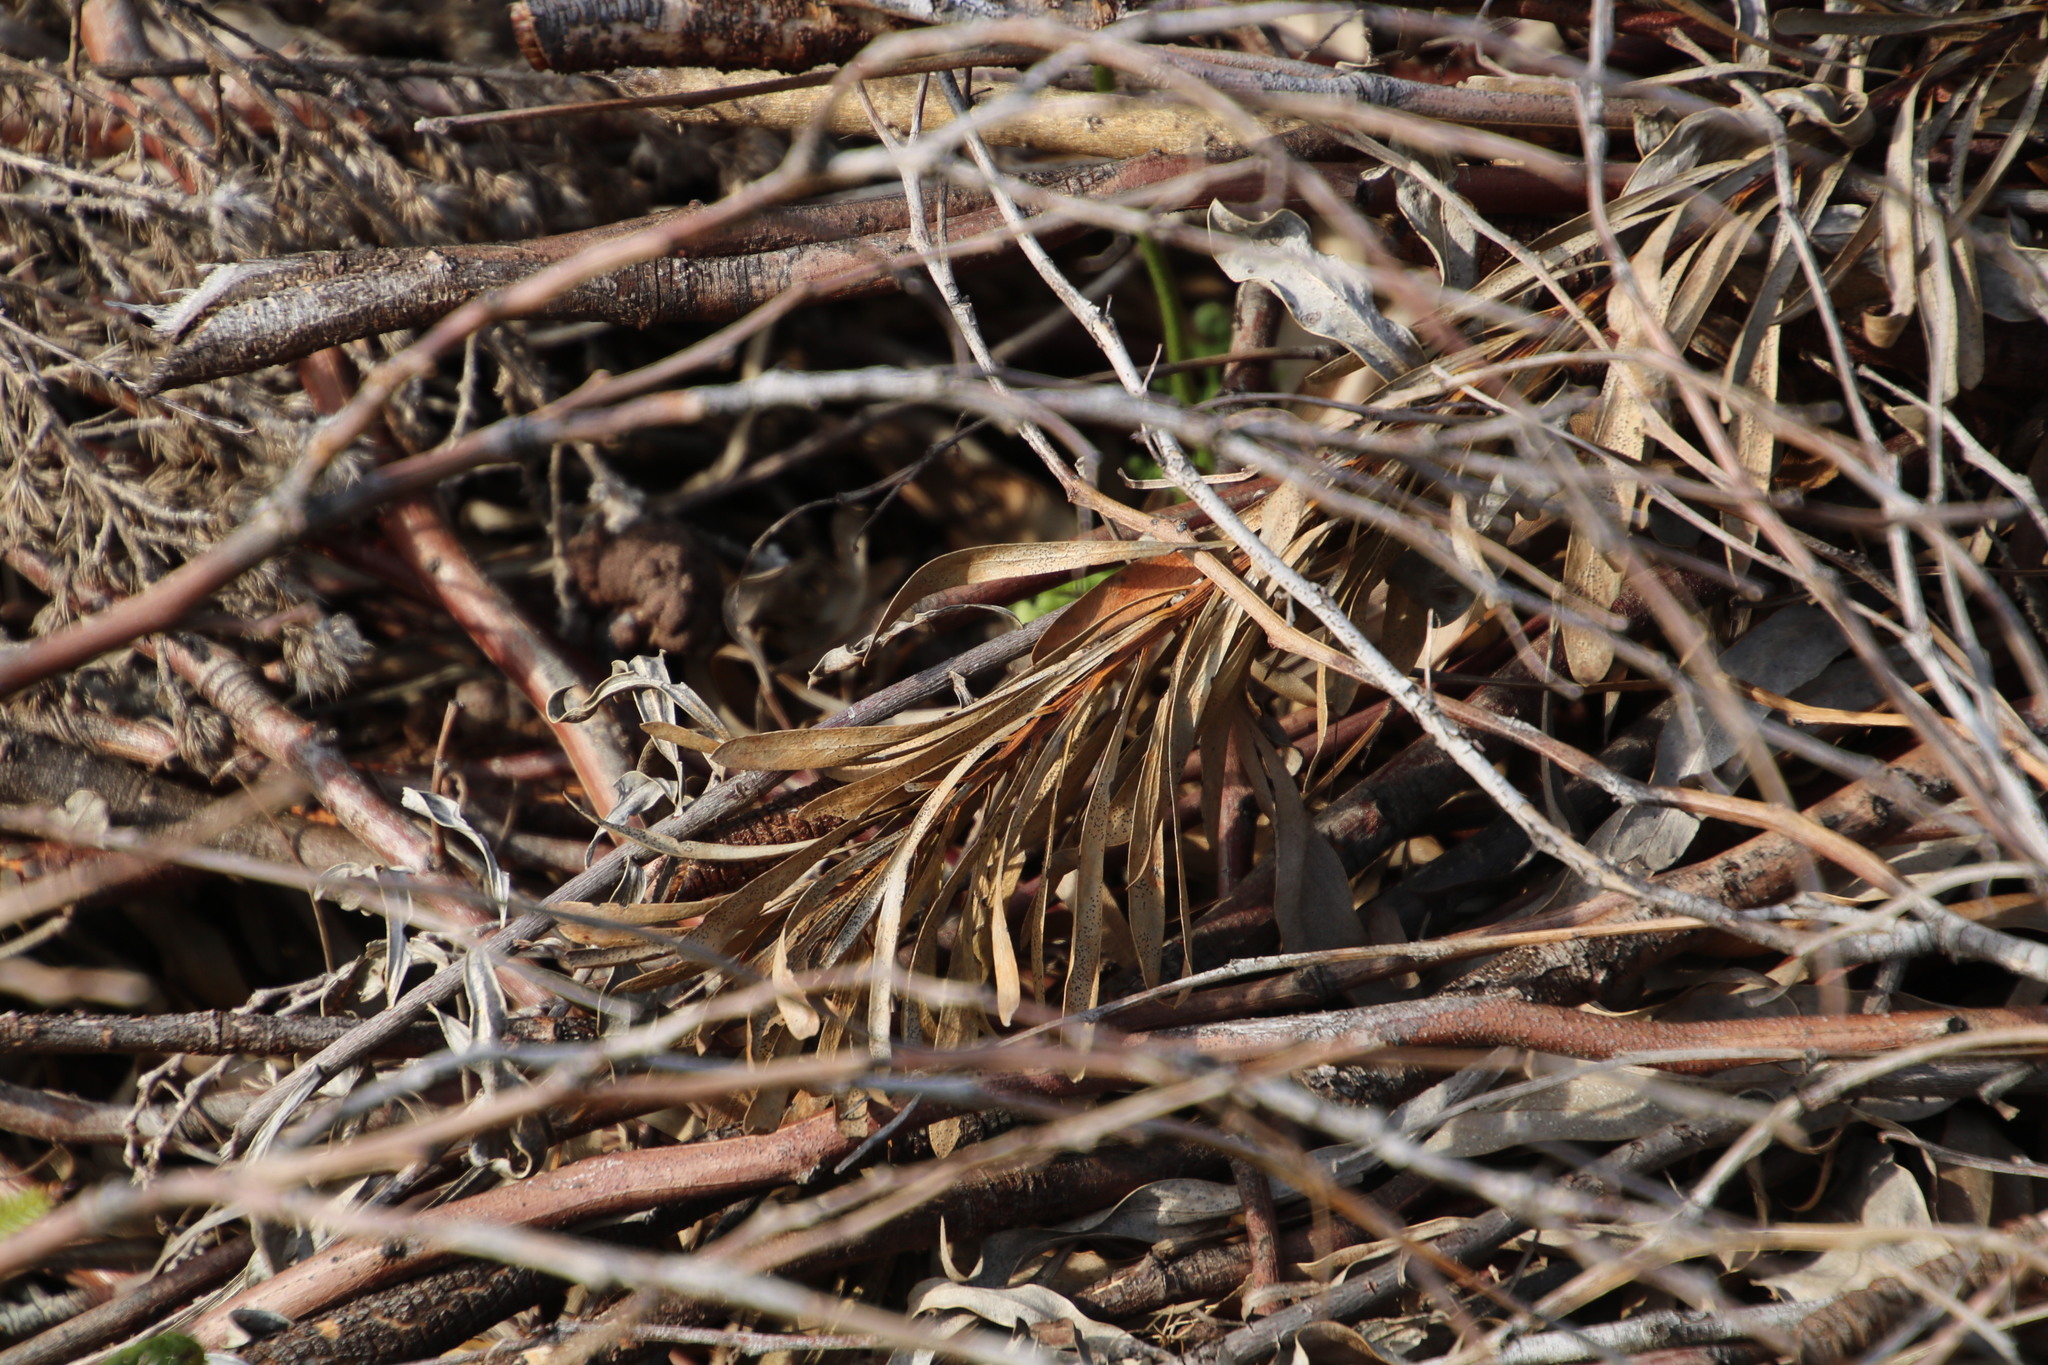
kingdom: Plantae
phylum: Tracheophyta
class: Magnoliopsida
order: Proteales
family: Proteaceae
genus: Protea
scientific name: Protea repens
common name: Sugarbush
